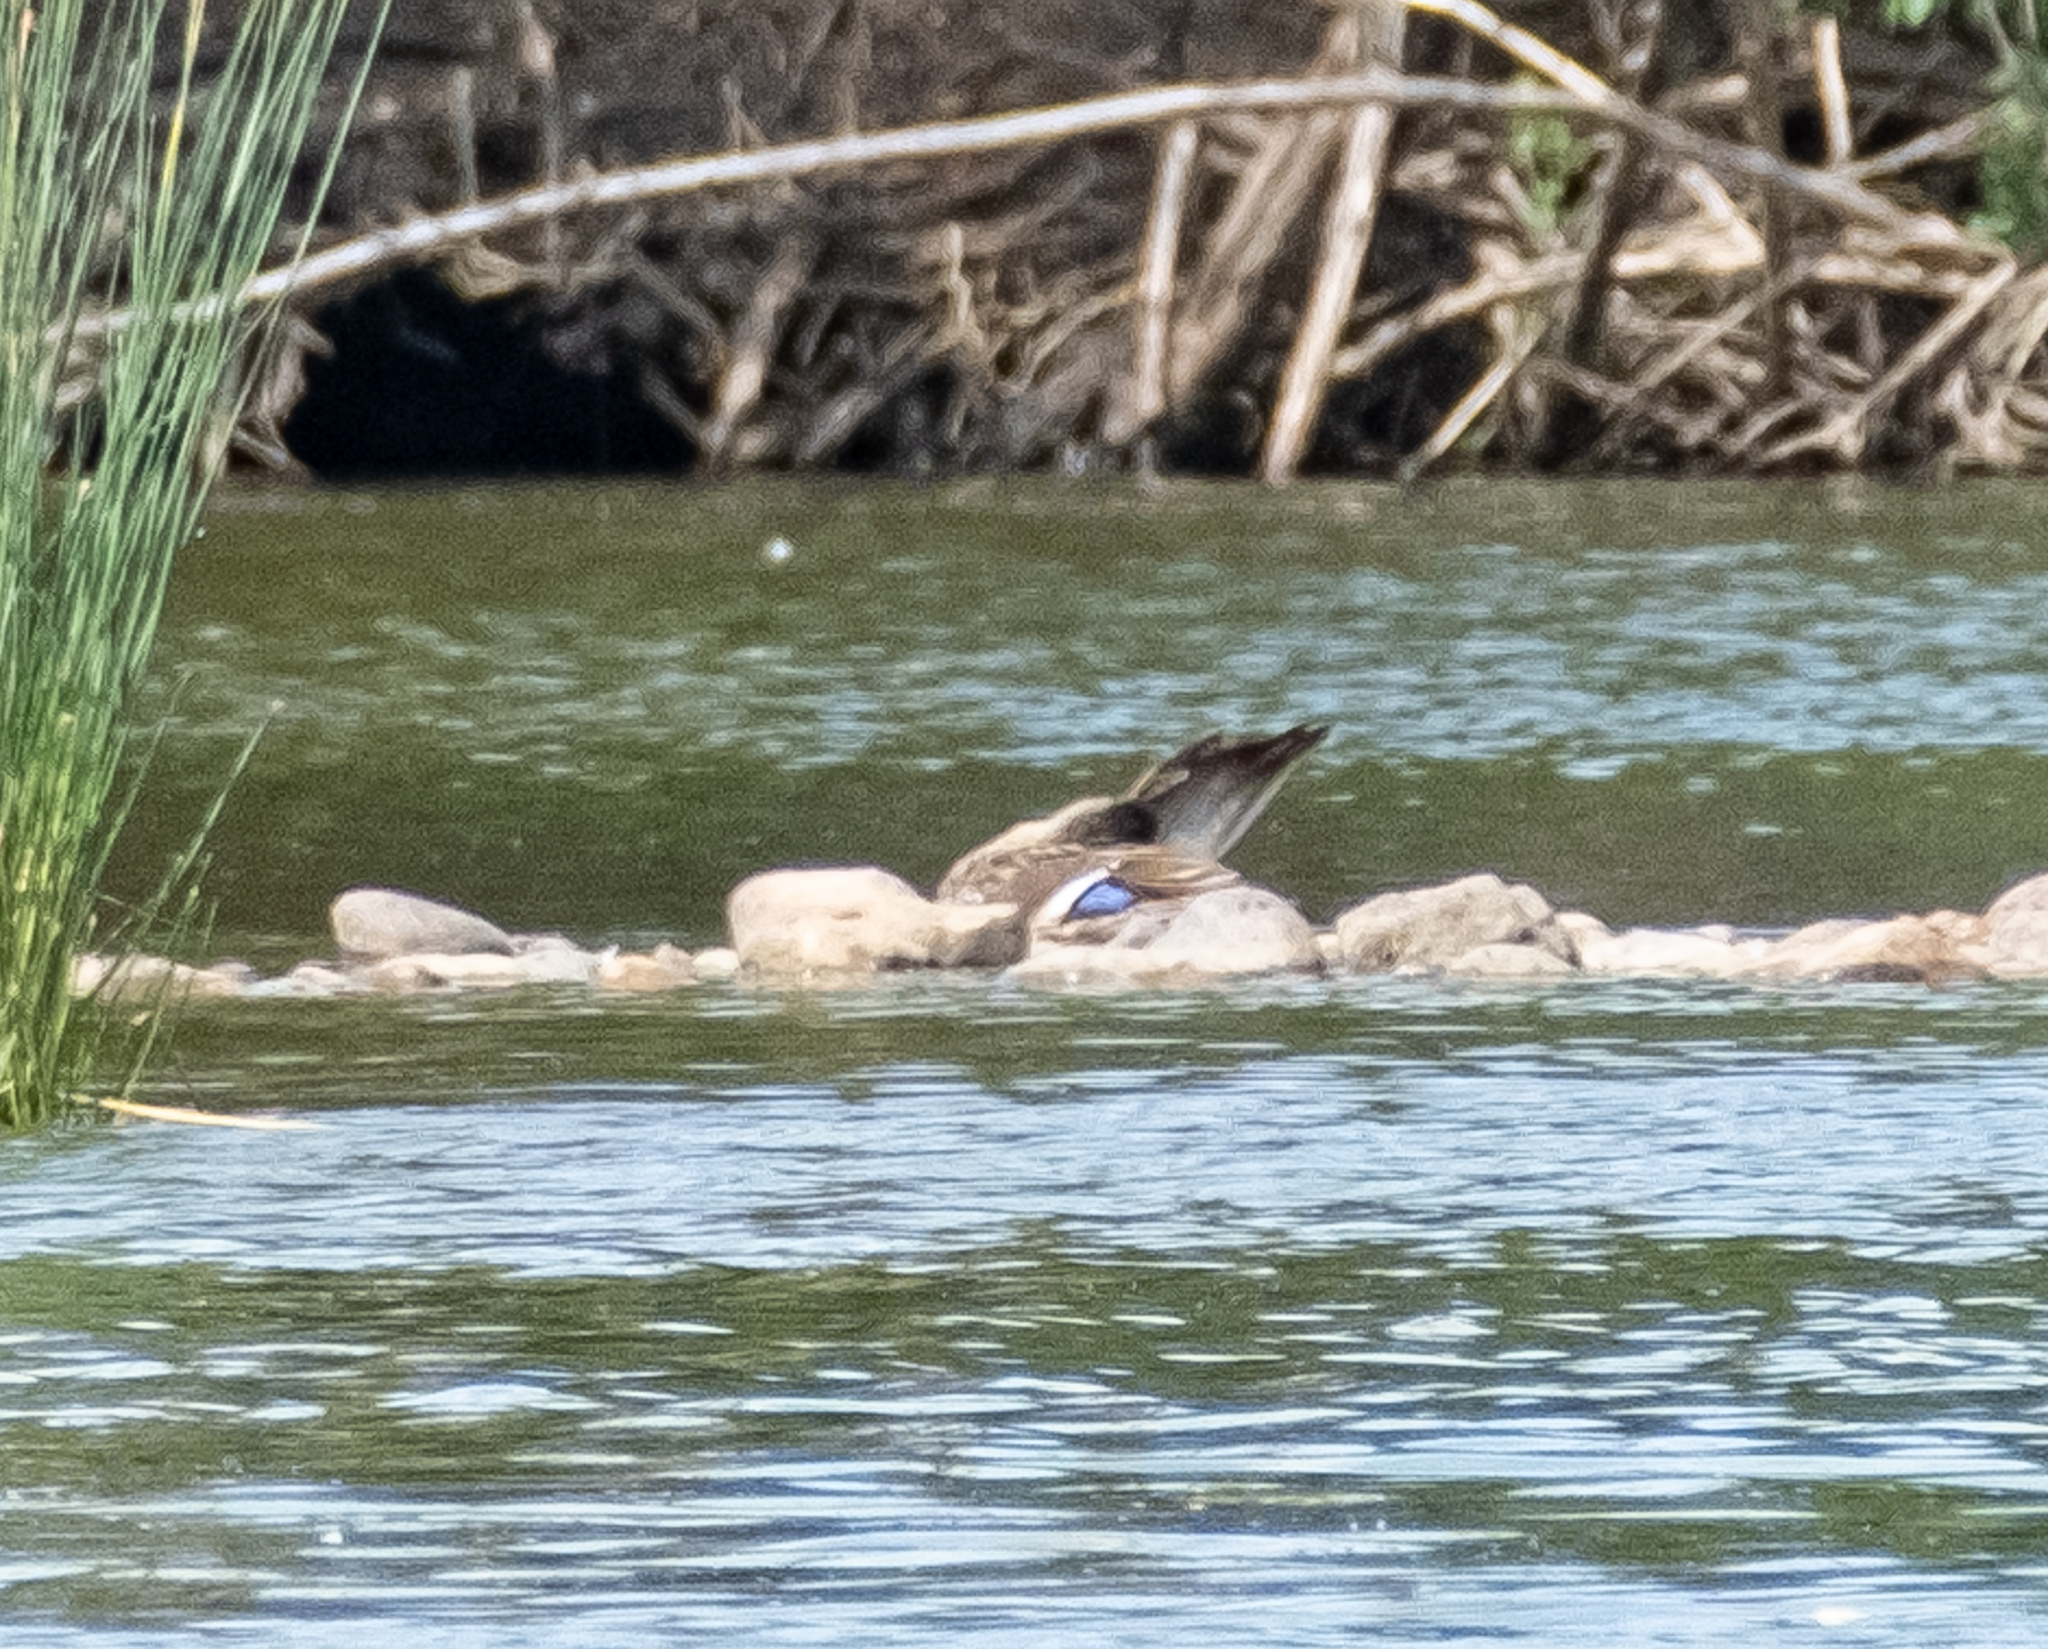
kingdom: Animalia
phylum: Chordata
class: Aves
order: Anseriformes
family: Anatidae
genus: Anas
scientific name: Anas platyrhynchos
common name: Mallard
